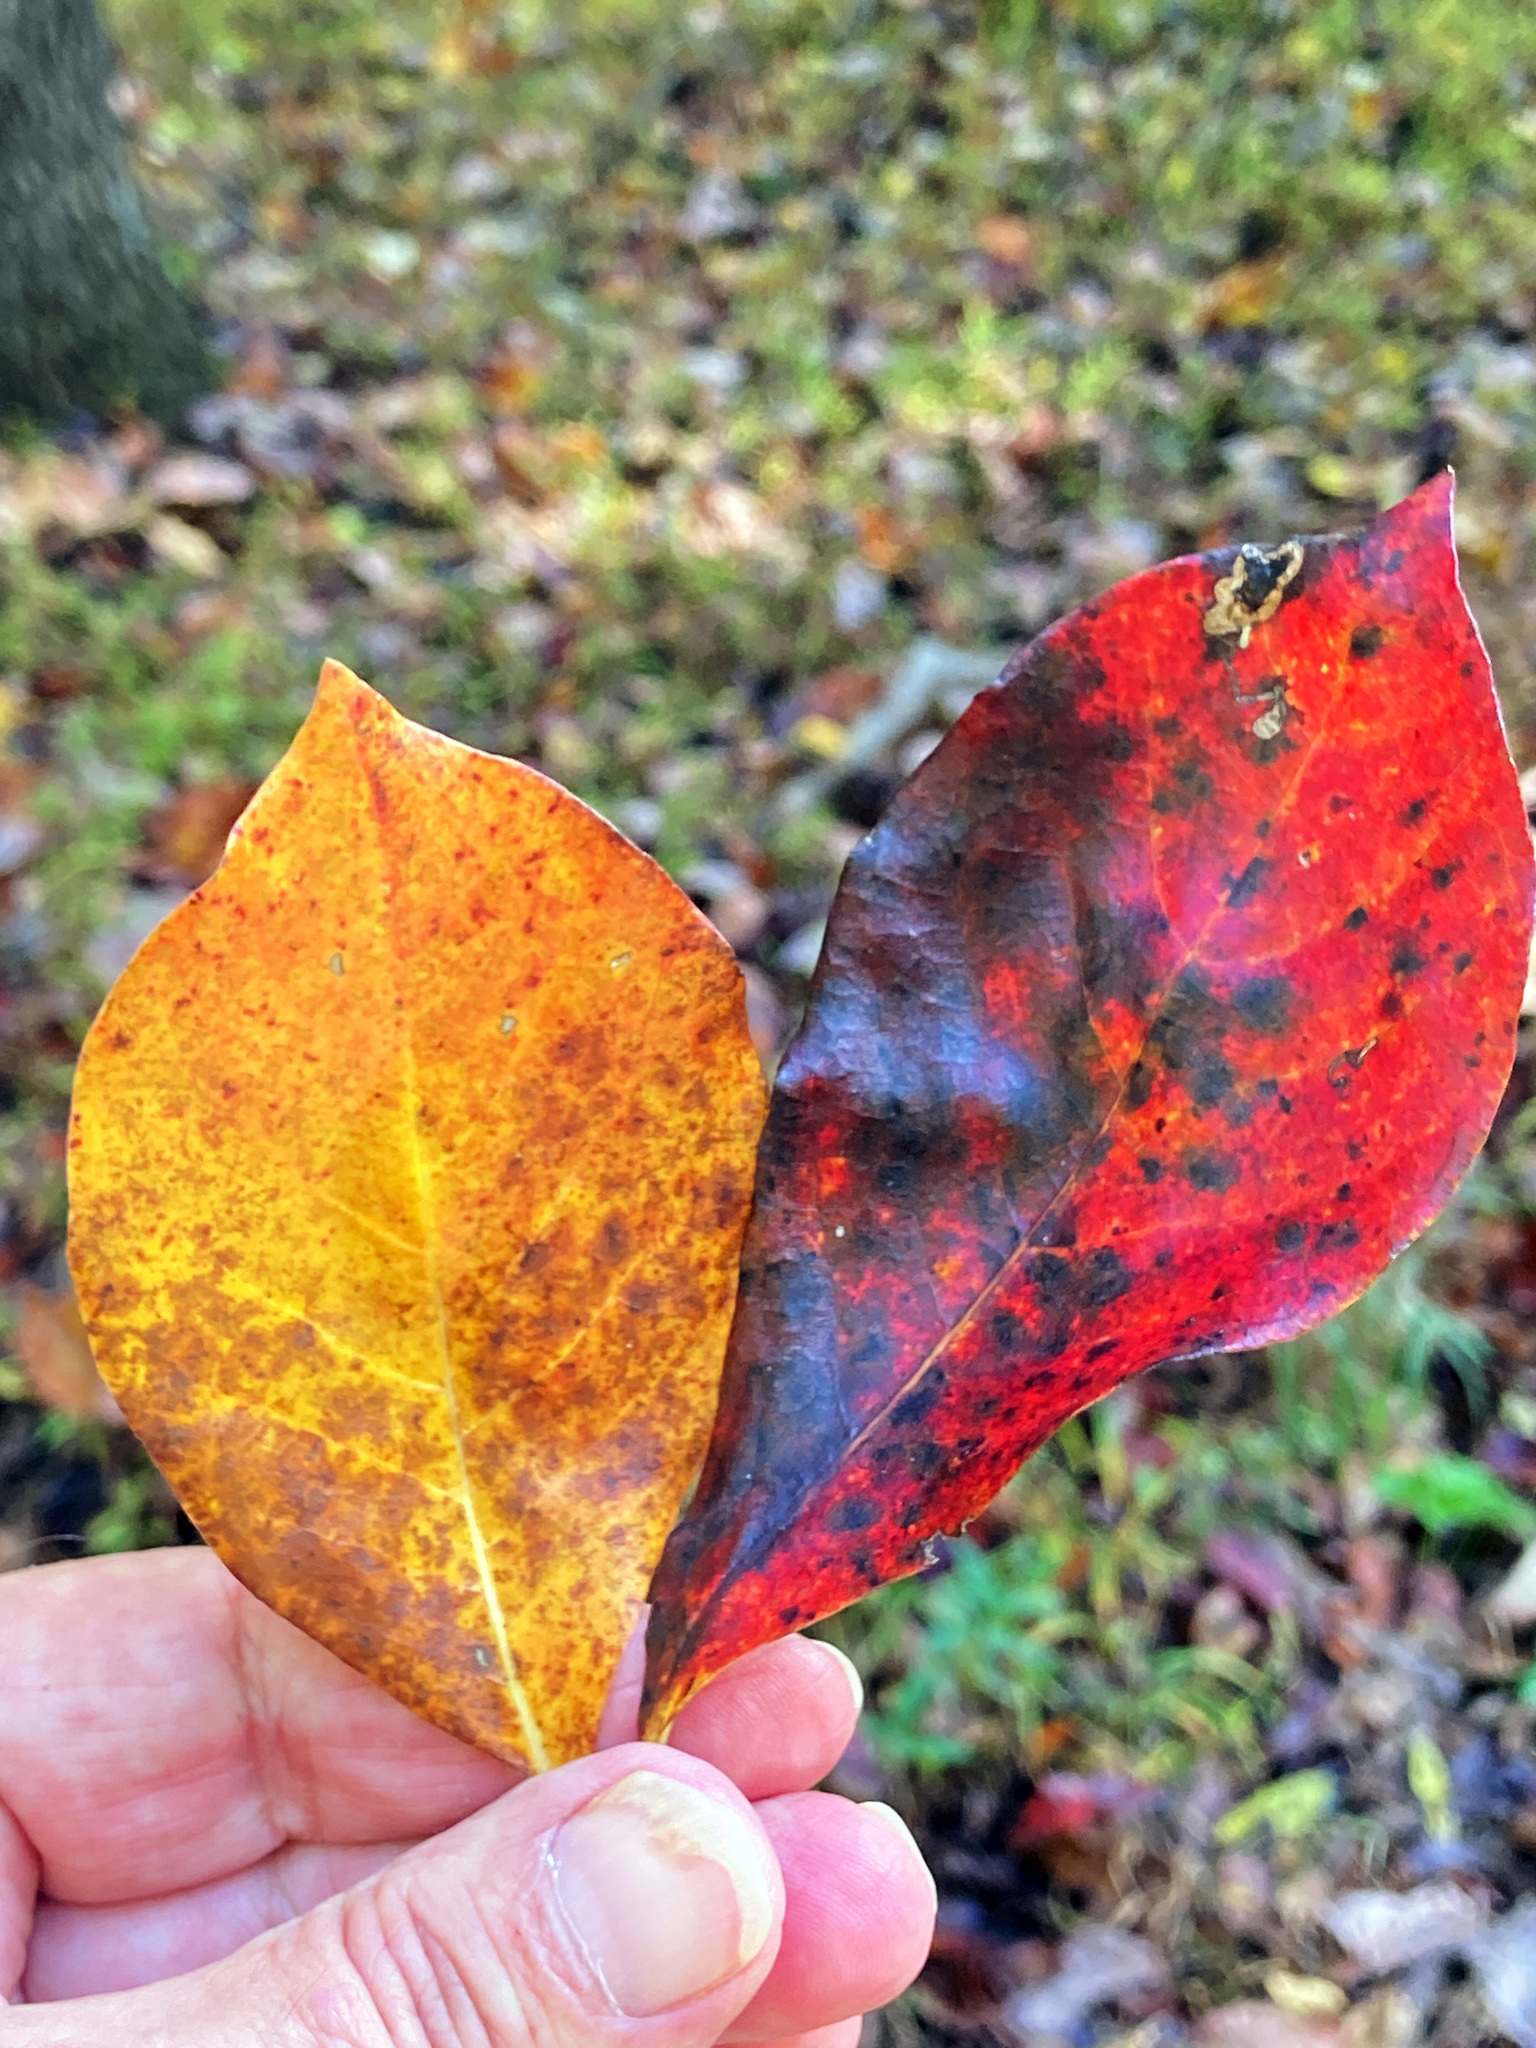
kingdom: Plantae
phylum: Tracheophyta
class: Magnoliopsida
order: Cornales
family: Nyssaceae
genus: Nyssa
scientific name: Nyssa sylvatica
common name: Black tupelo
